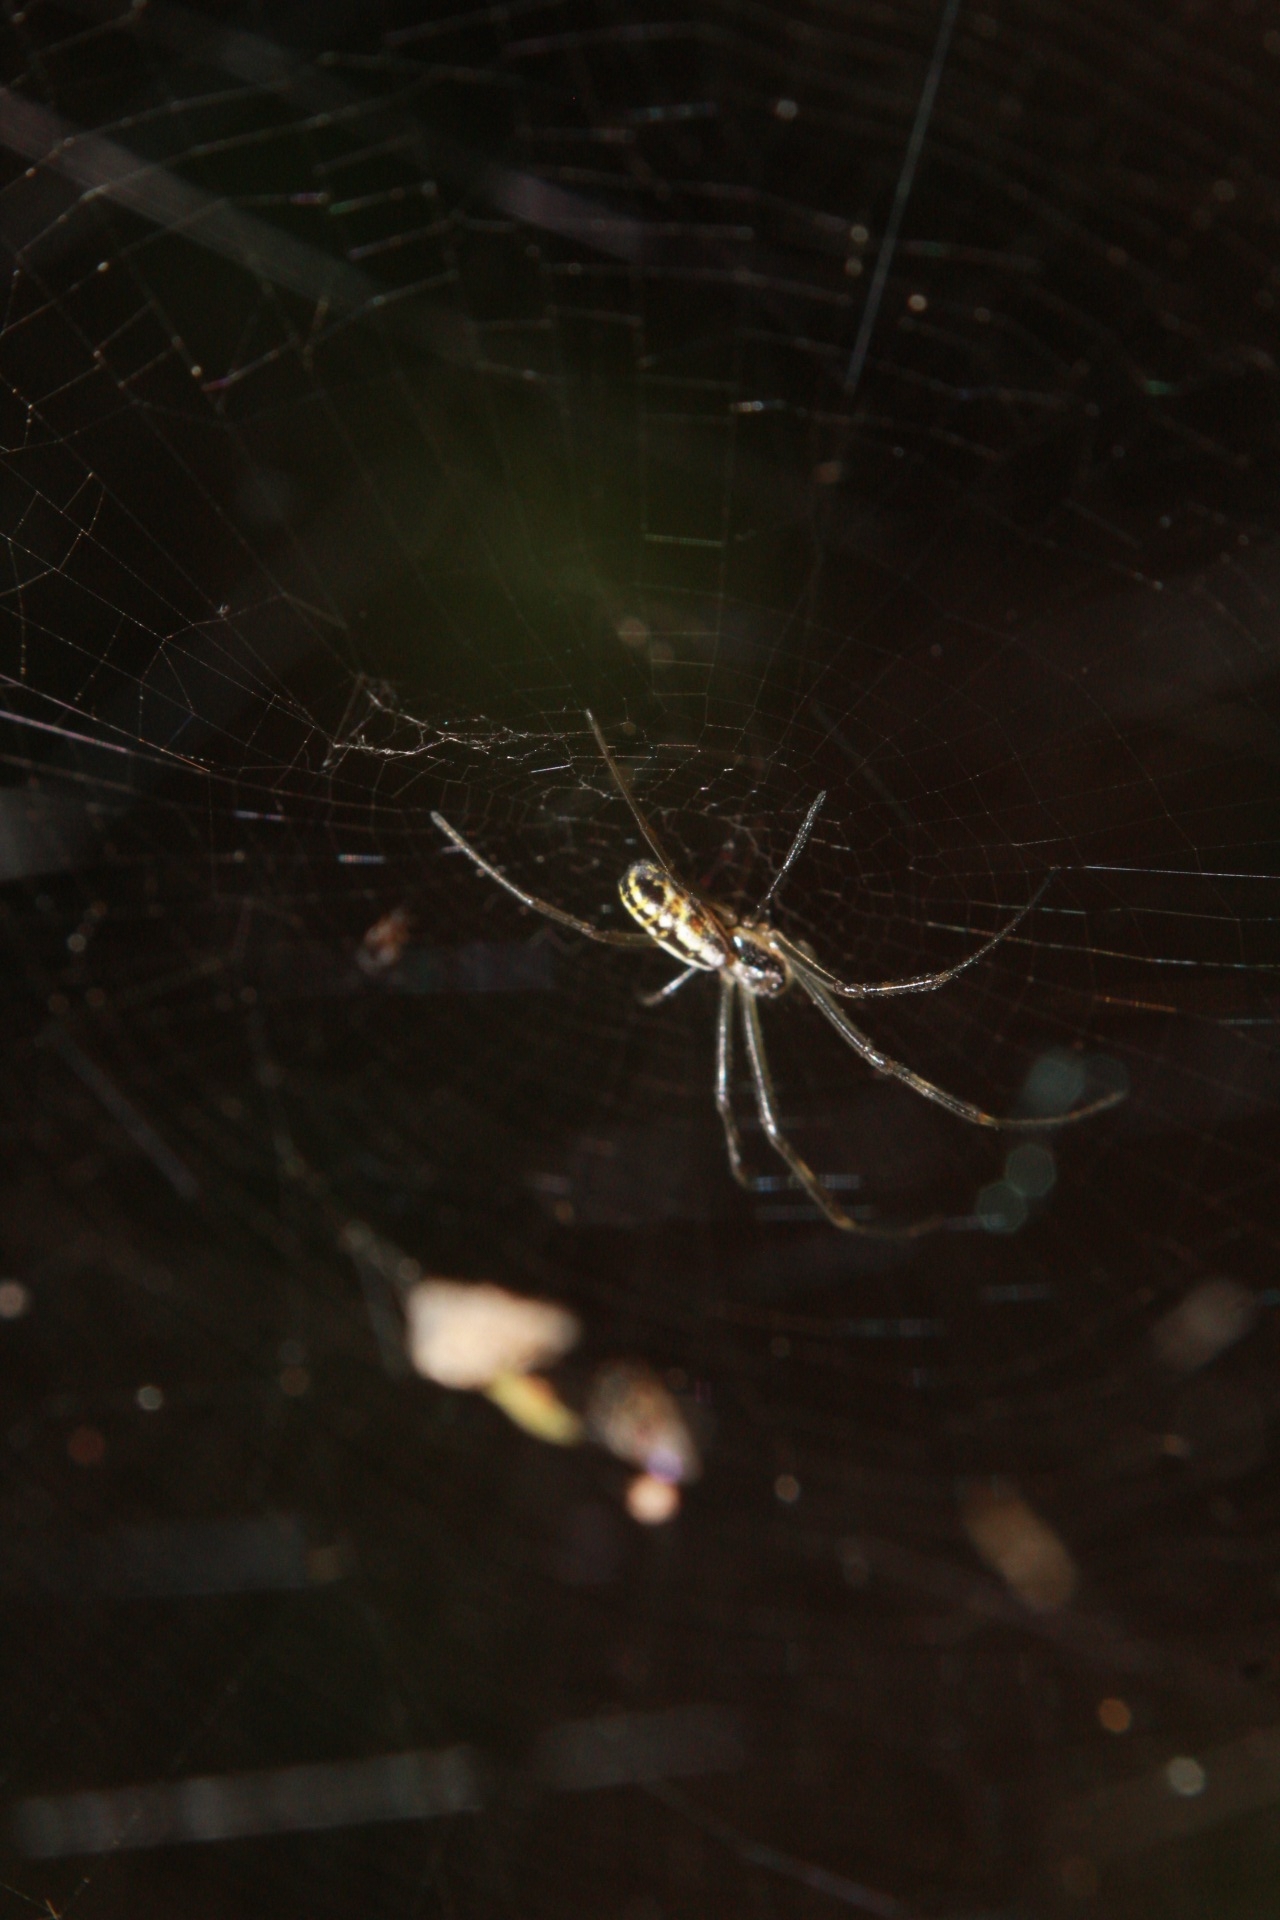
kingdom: Animalia
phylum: Arthropoda
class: Arachnida
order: Araneae
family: Araneidae
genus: Trichonephila
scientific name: Trichonephila clavipes
